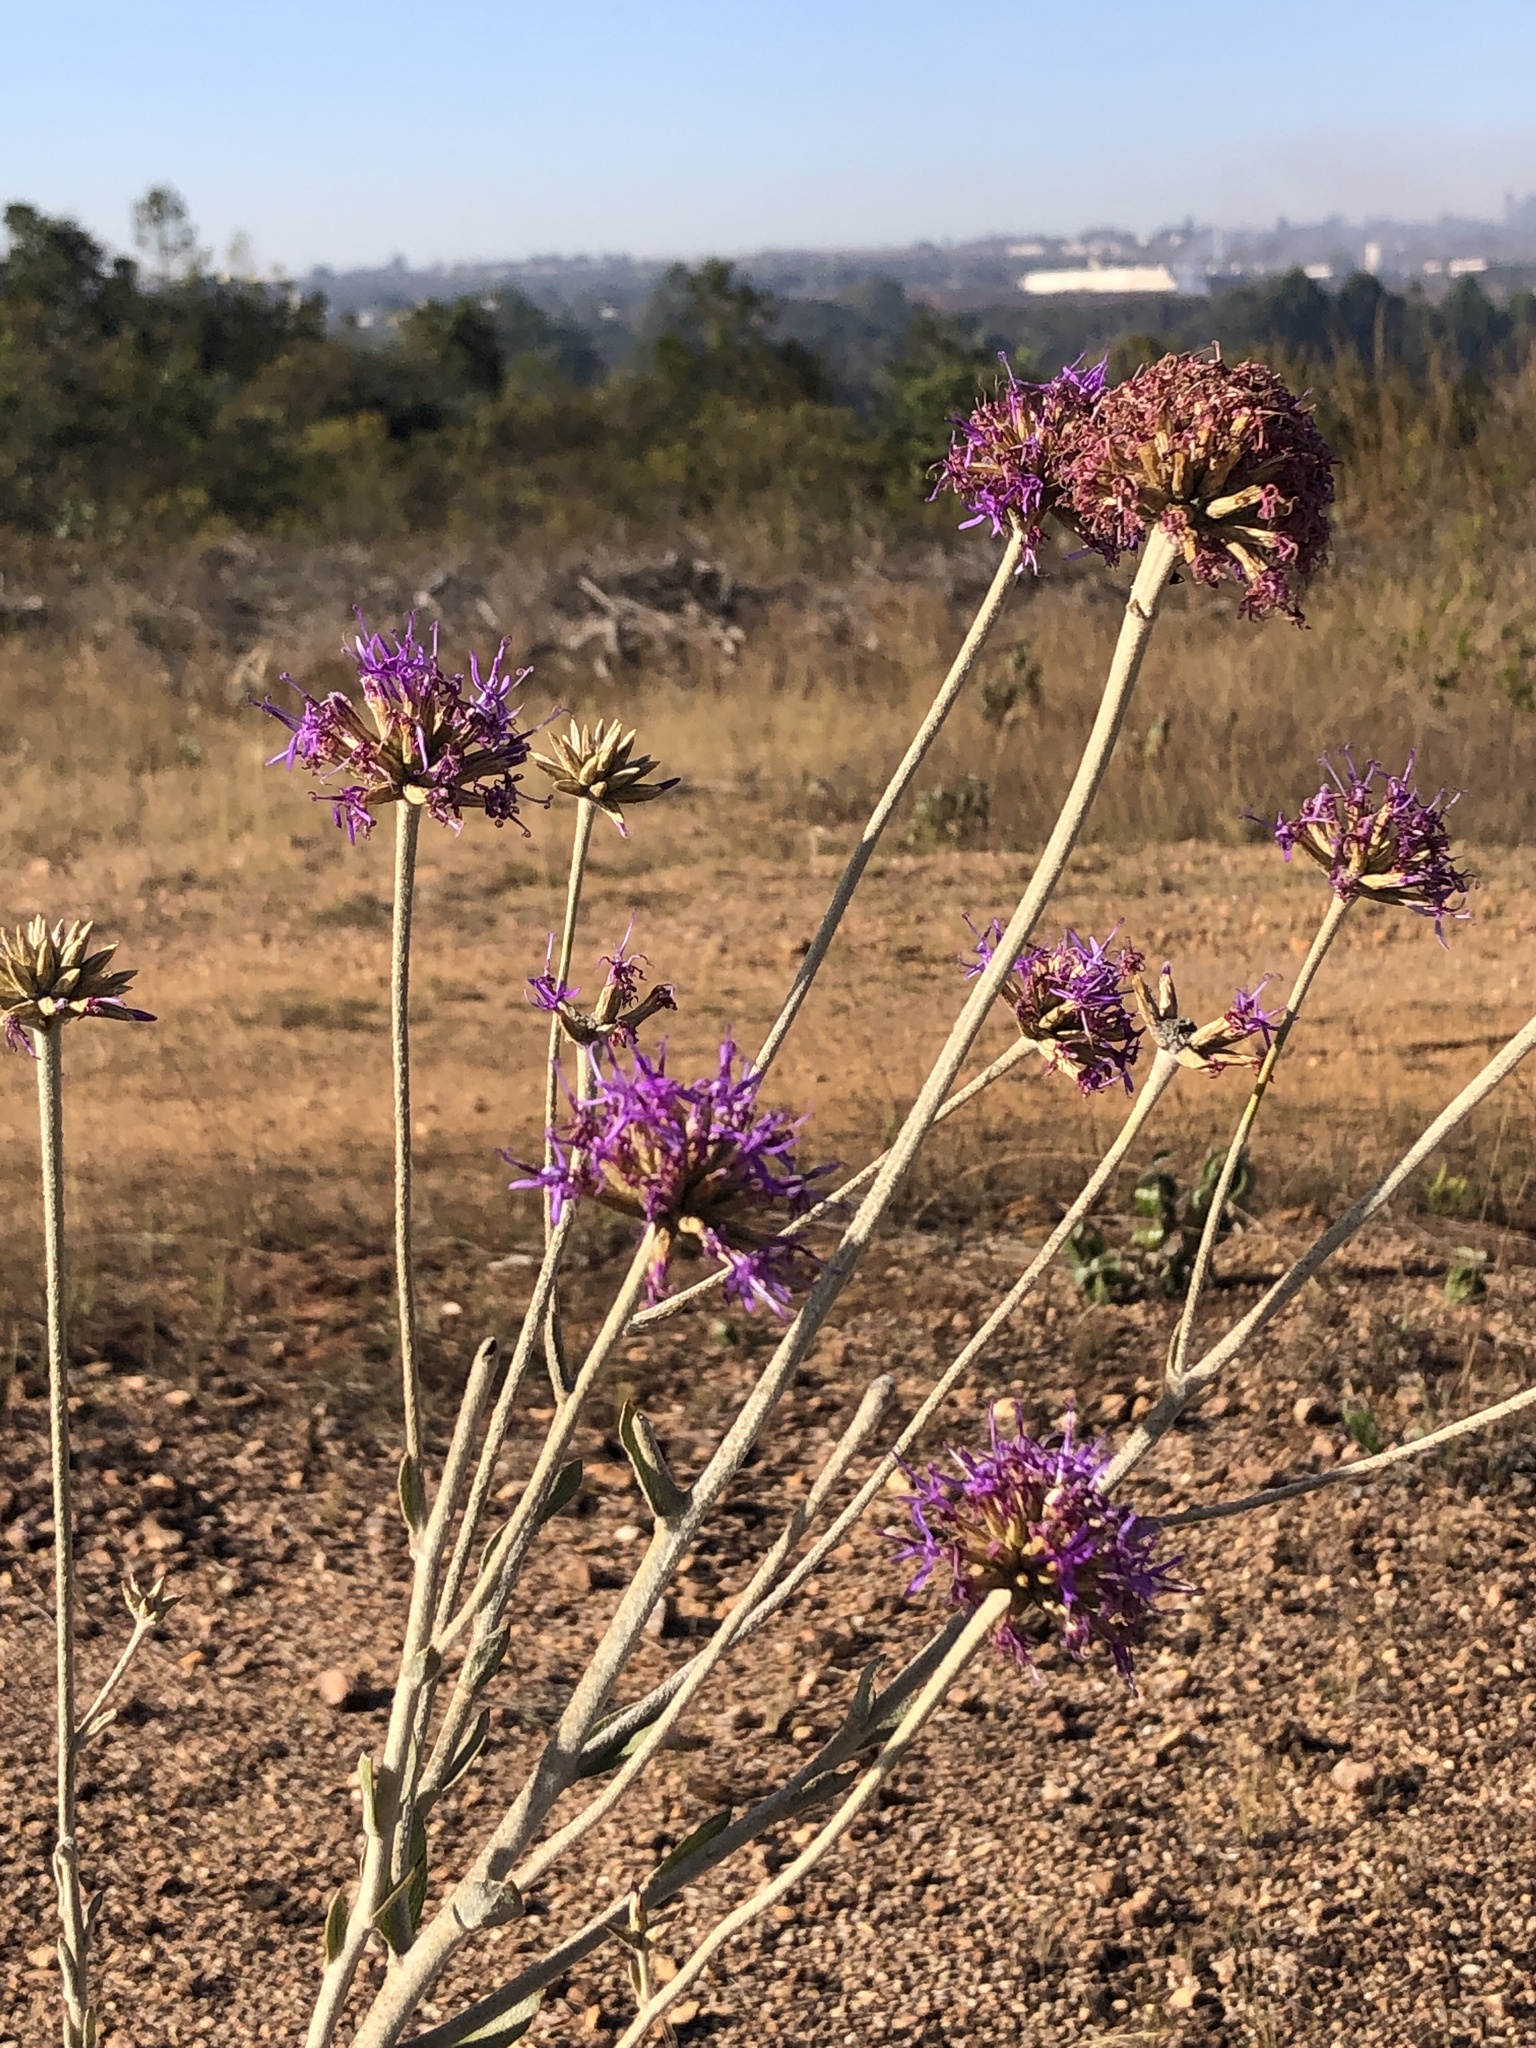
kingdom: Plantae
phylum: Tracheophyta
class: Magnoliopsida
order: Asterales
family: Asteraceae
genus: Chresta
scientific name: Chresta exsucca
